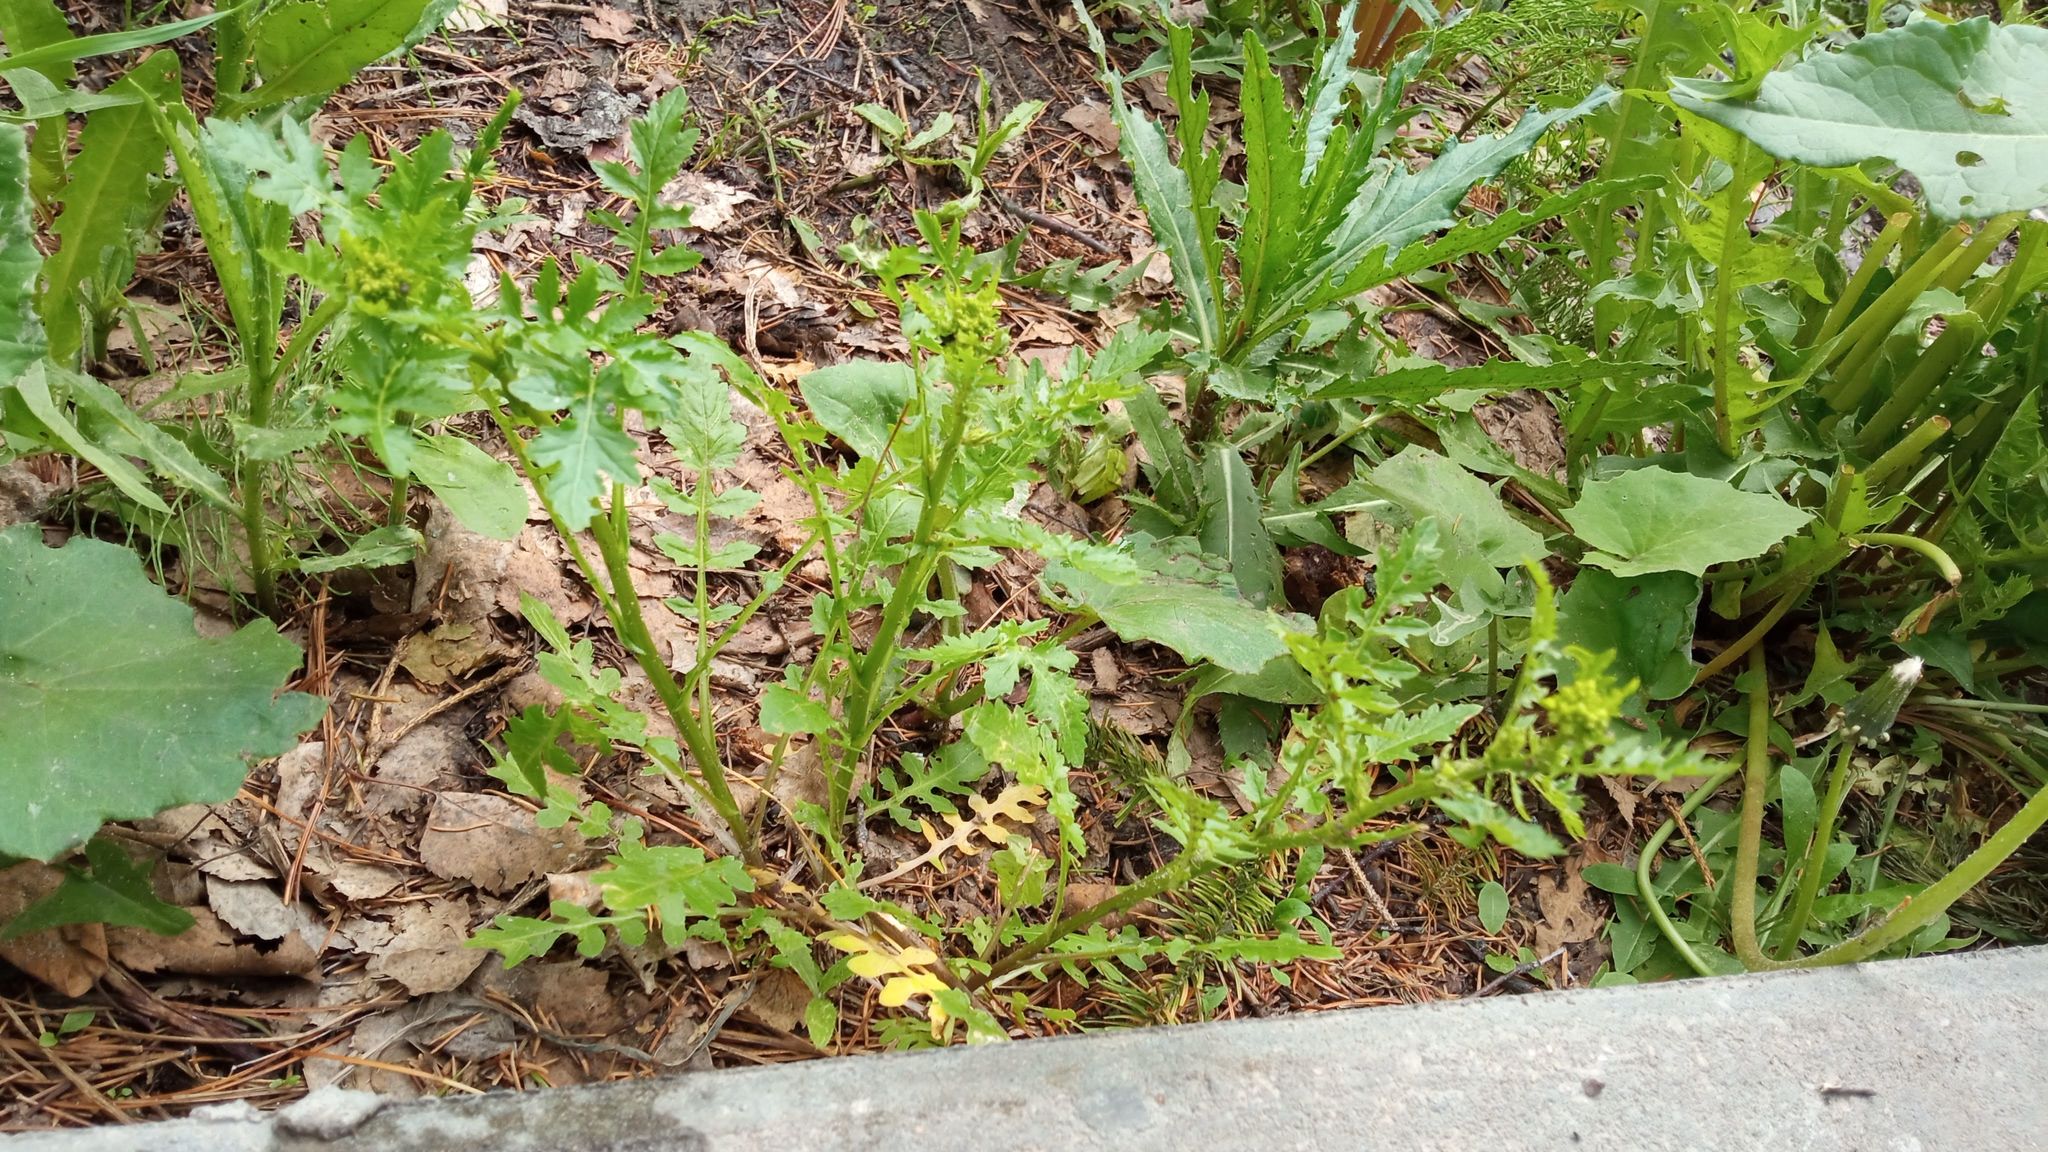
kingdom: Plantae
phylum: Tracheophyta
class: Magnoliopsida
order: Brassicales
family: Brassicaceae
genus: Rorippa
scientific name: Rorippa palustris
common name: Marsh yellow-cress
